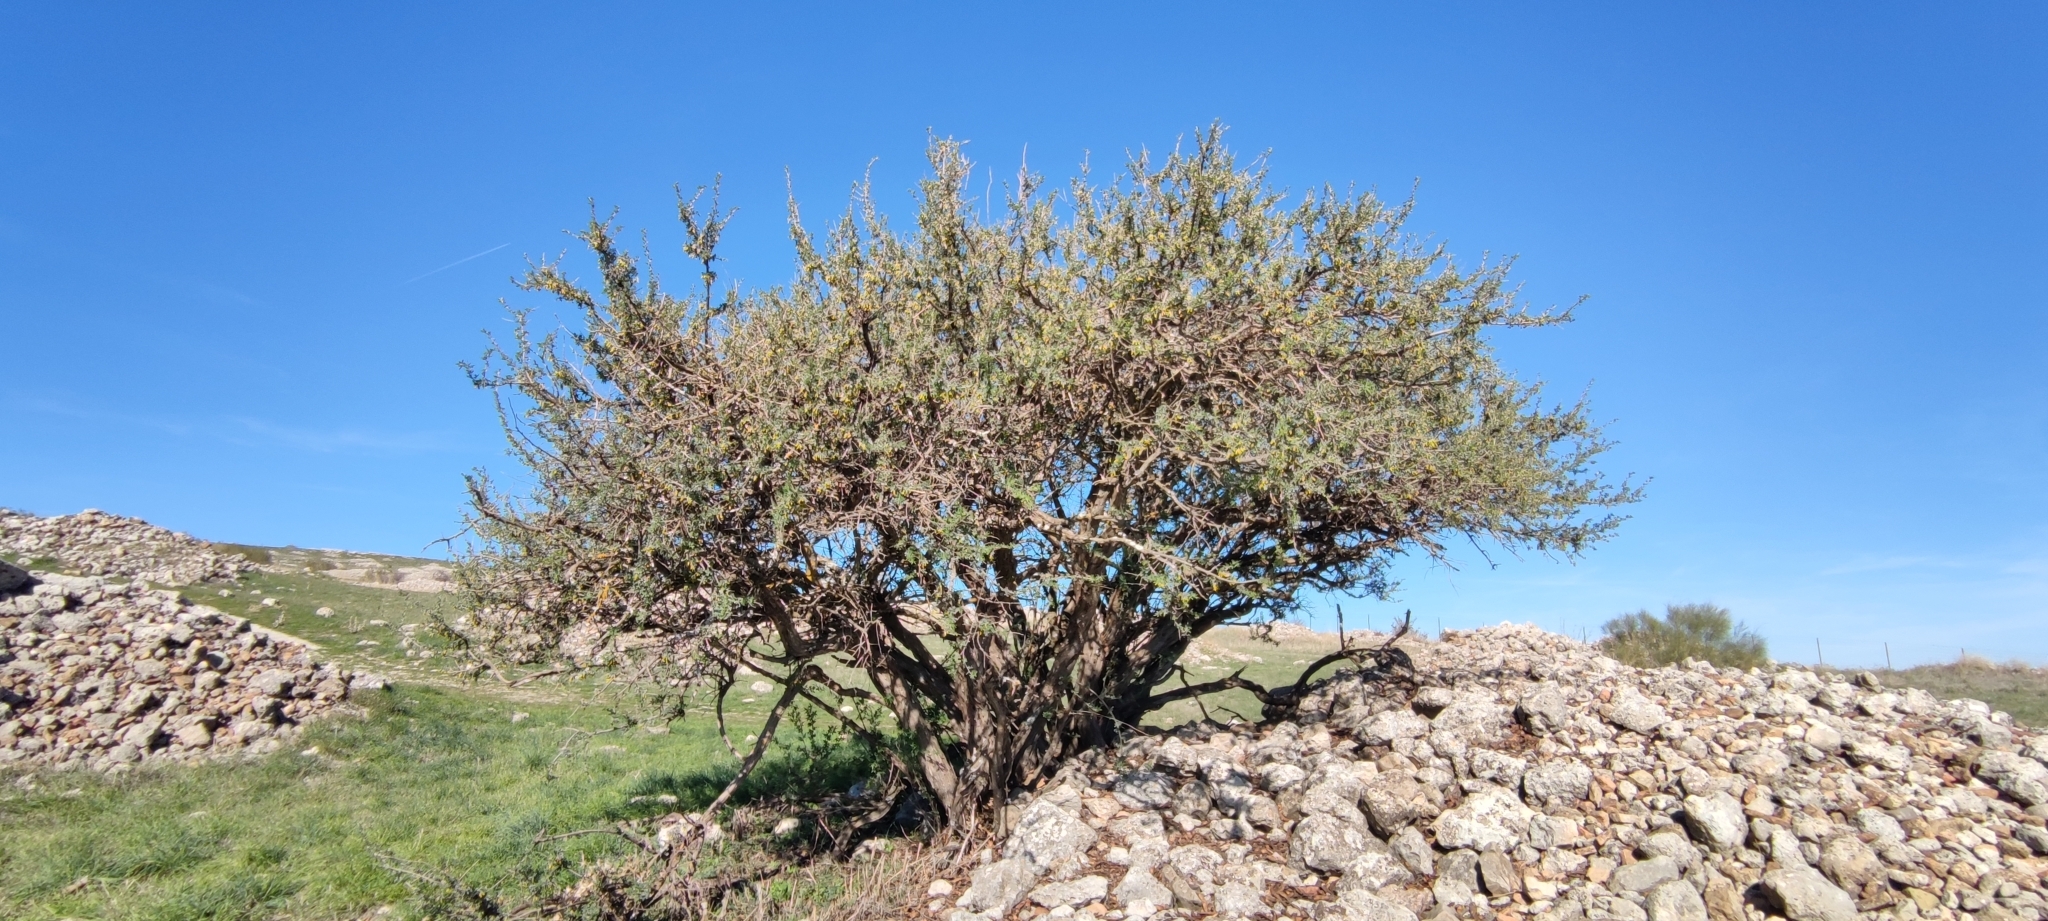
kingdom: Plantae
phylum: Tracheophyta
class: Magnoliopsida
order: Fabales
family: Fabaceae
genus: Anagyris
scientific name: Anagyris foetida
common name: Stinking bean trefoil
